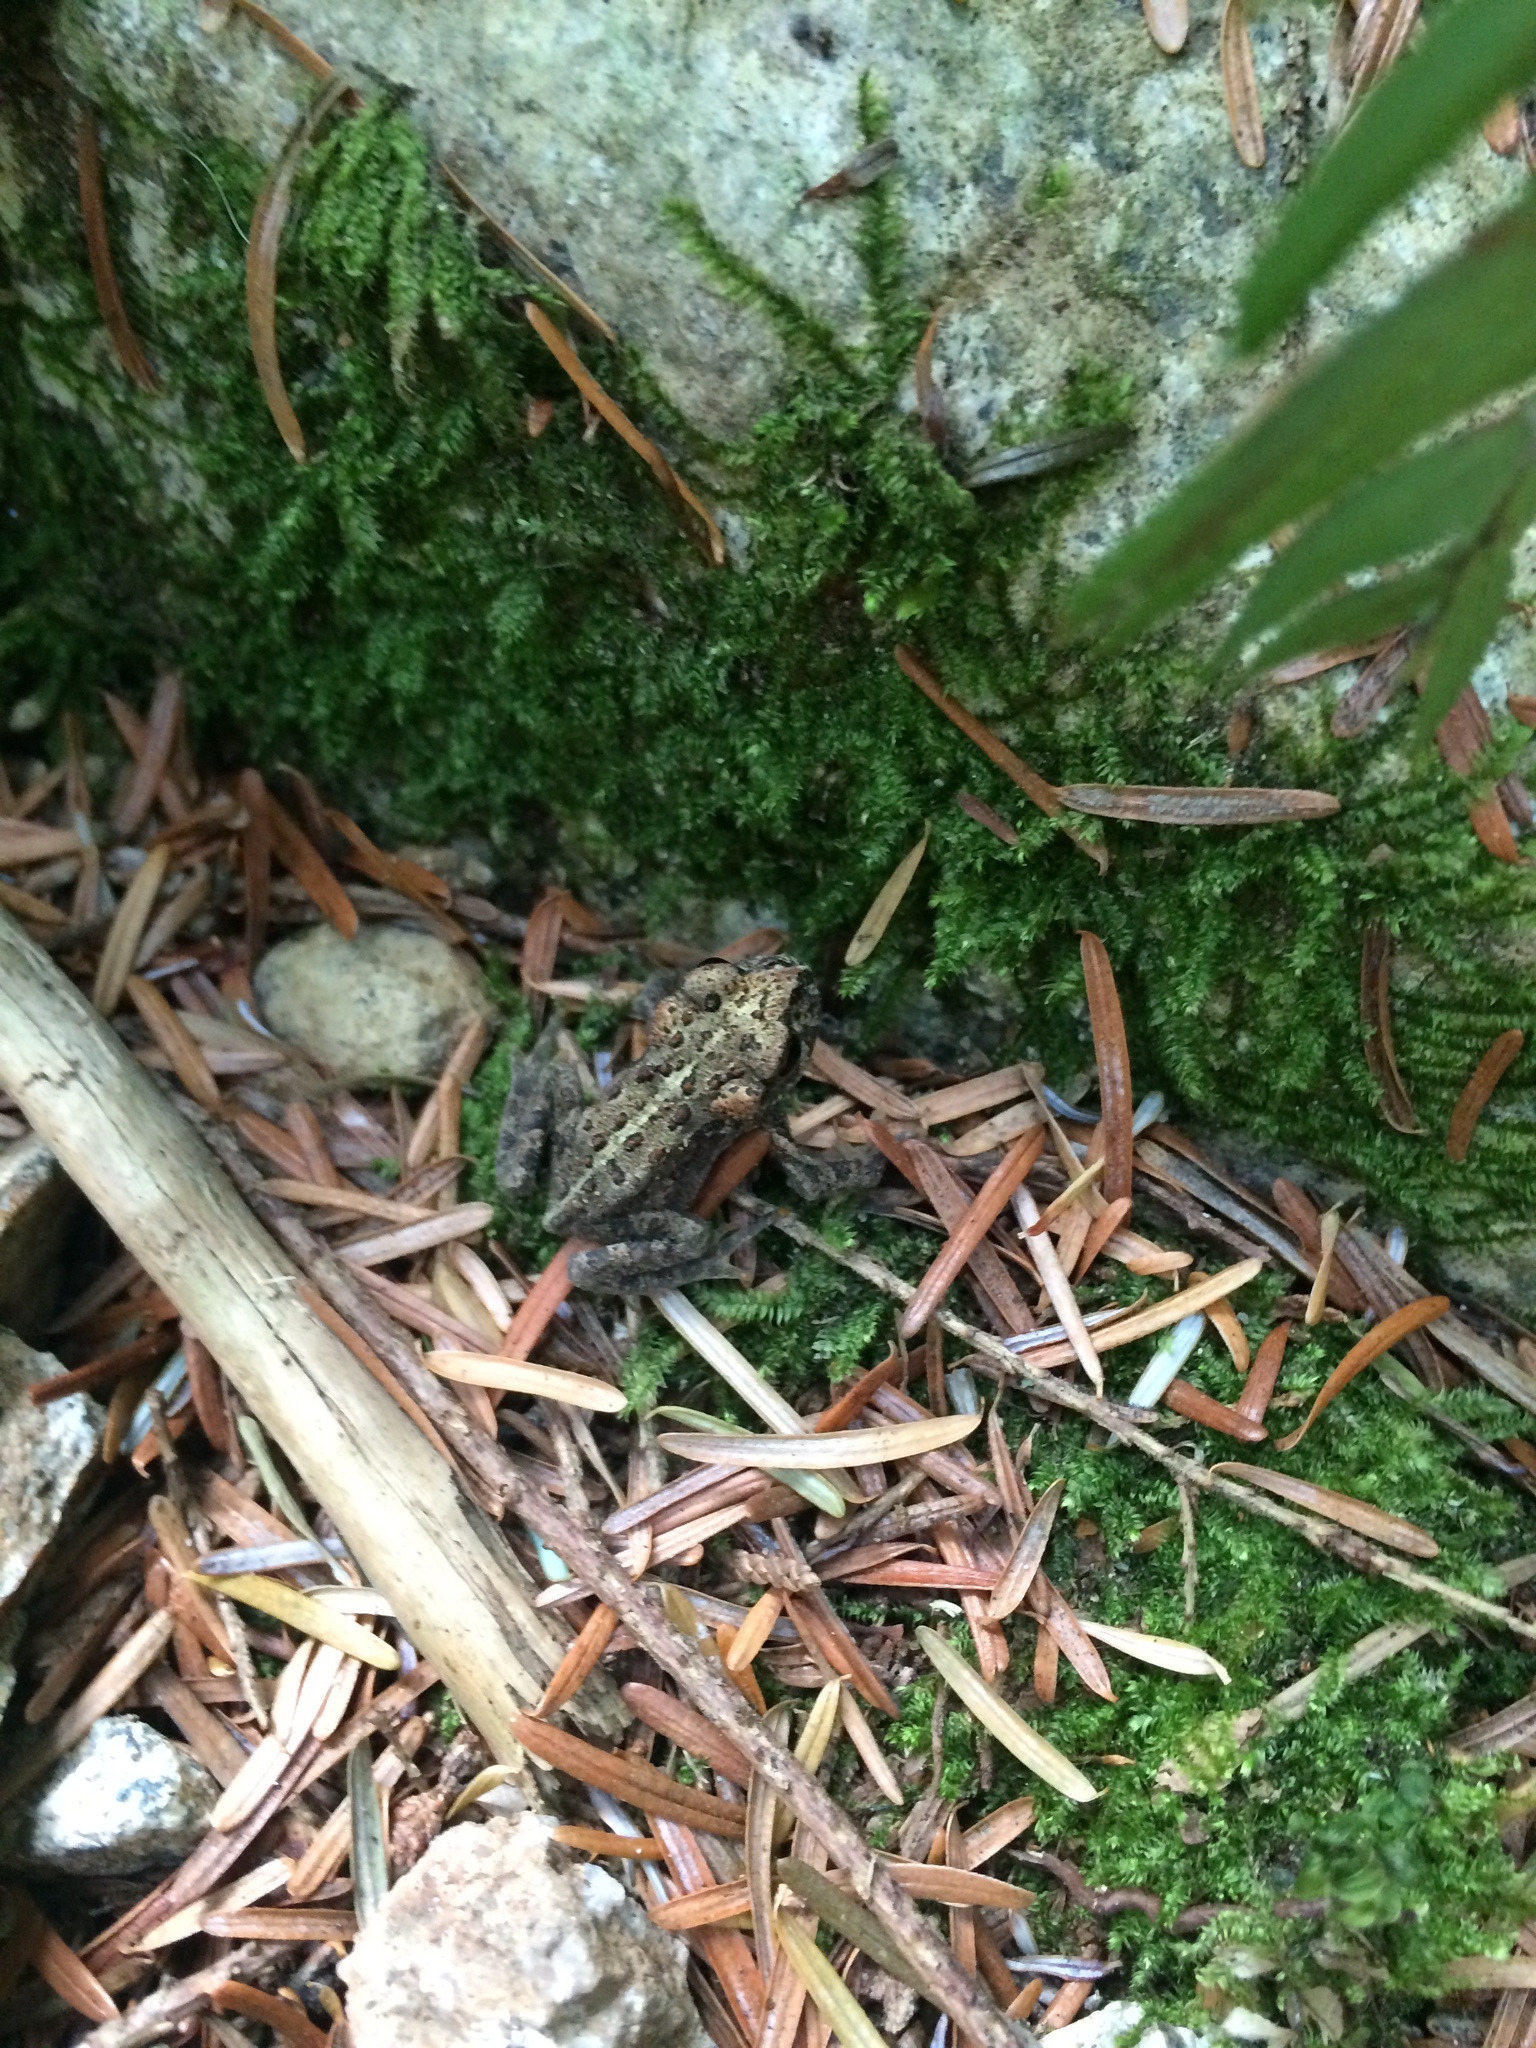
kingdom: Animalia
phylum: Chordata
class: Amphibia
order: Anura
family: Bufonidae
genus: Anaxyrus
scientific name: Anaxyrus boreas
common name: Western toad
